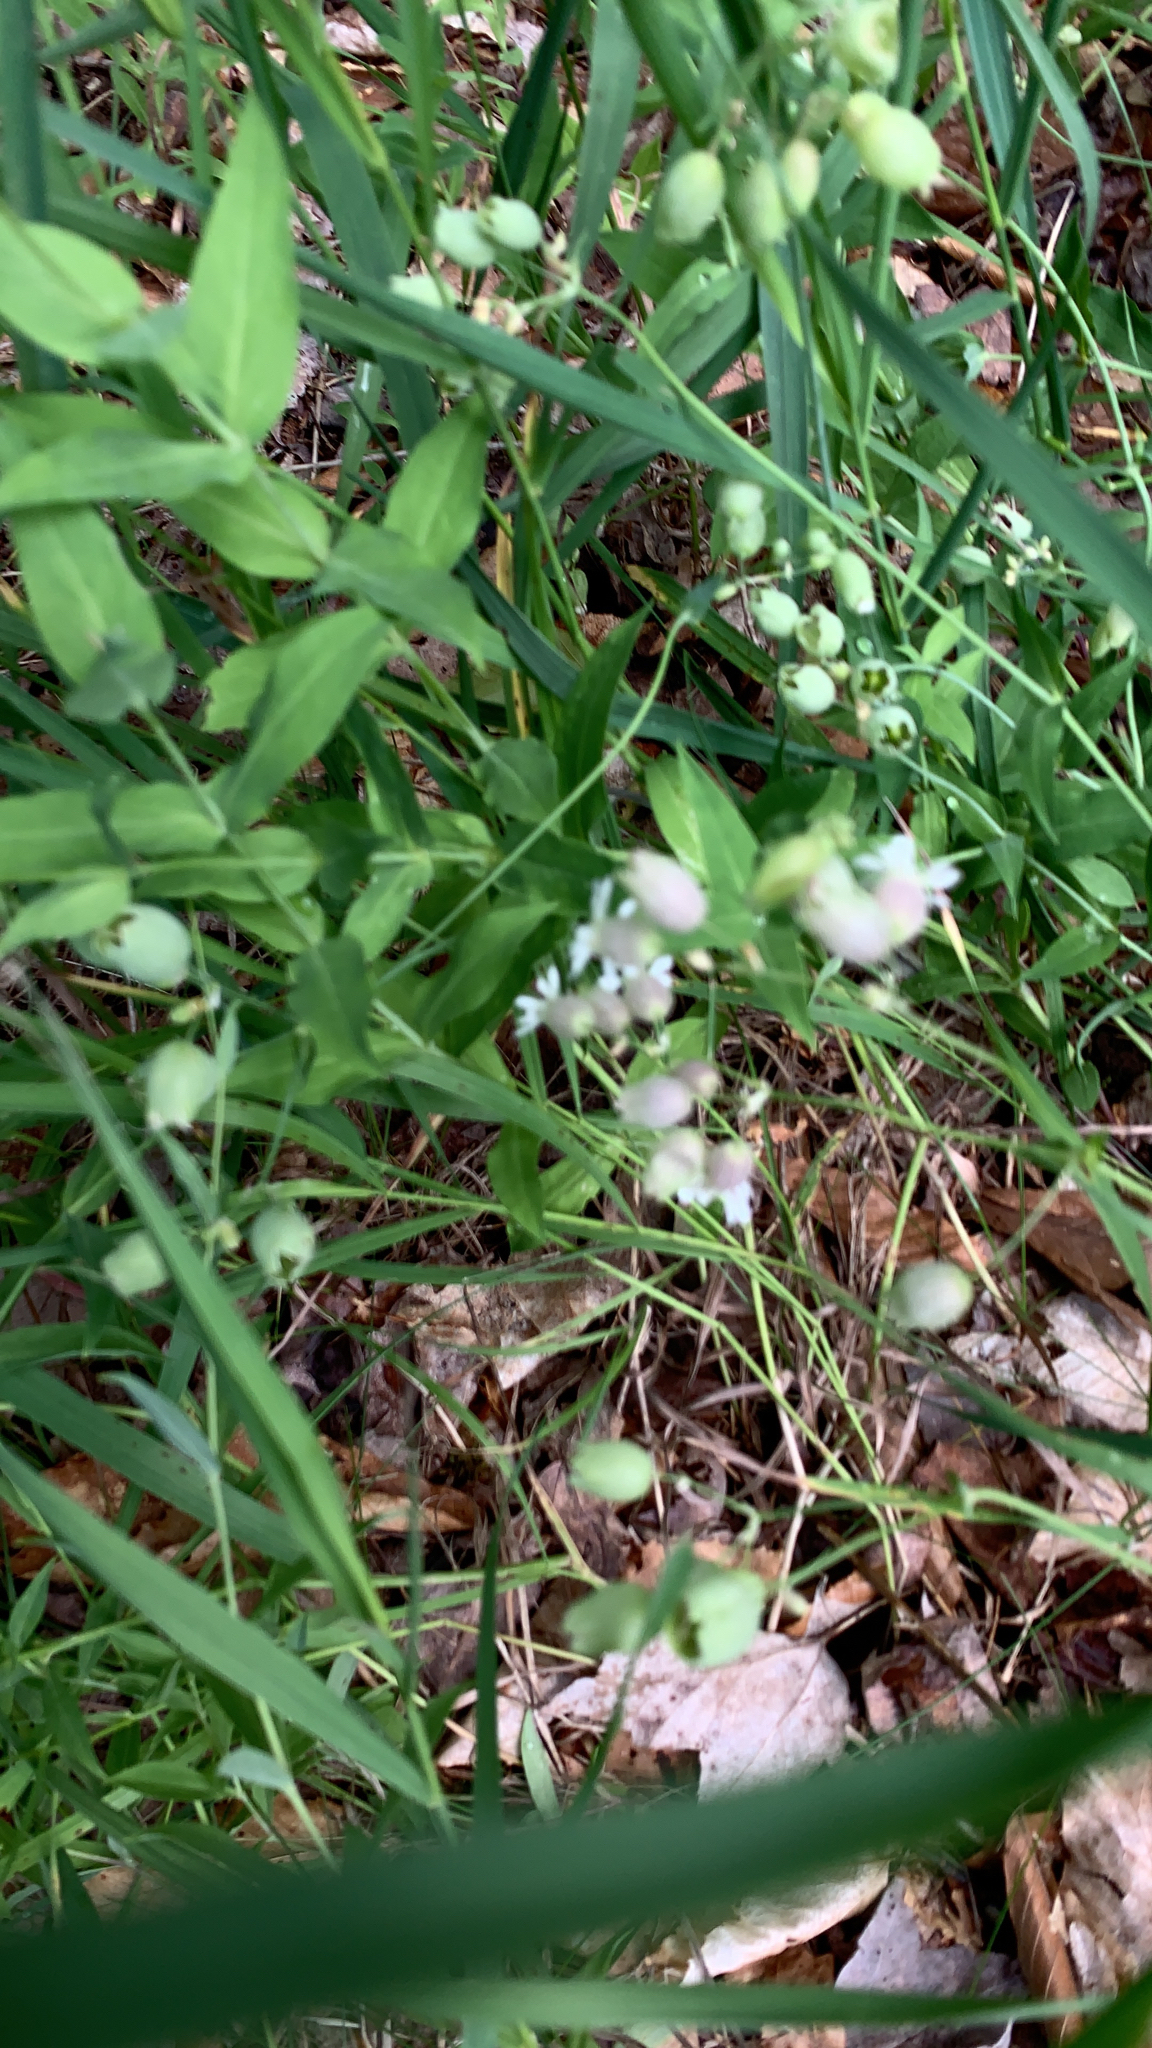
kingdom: Plantae
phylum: Tracheophyta
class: Magnoliopsida
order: Caryophyllales
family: Caryophyllaceae
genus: Silene
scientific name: Silene vulgaris
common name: Bladder campion
